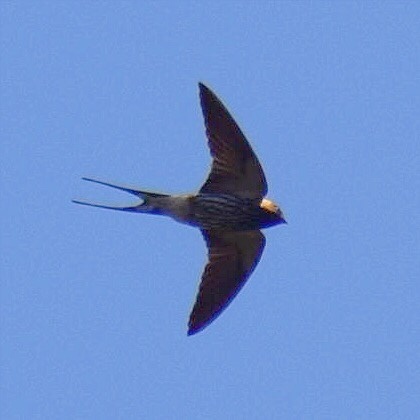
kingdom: Animalia
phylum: Chordata
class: Aves
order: Passeriformes
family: Hirundinidae
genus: Cecropis
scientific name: Cecropis abyssinica
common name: Lesser striped-swallow
